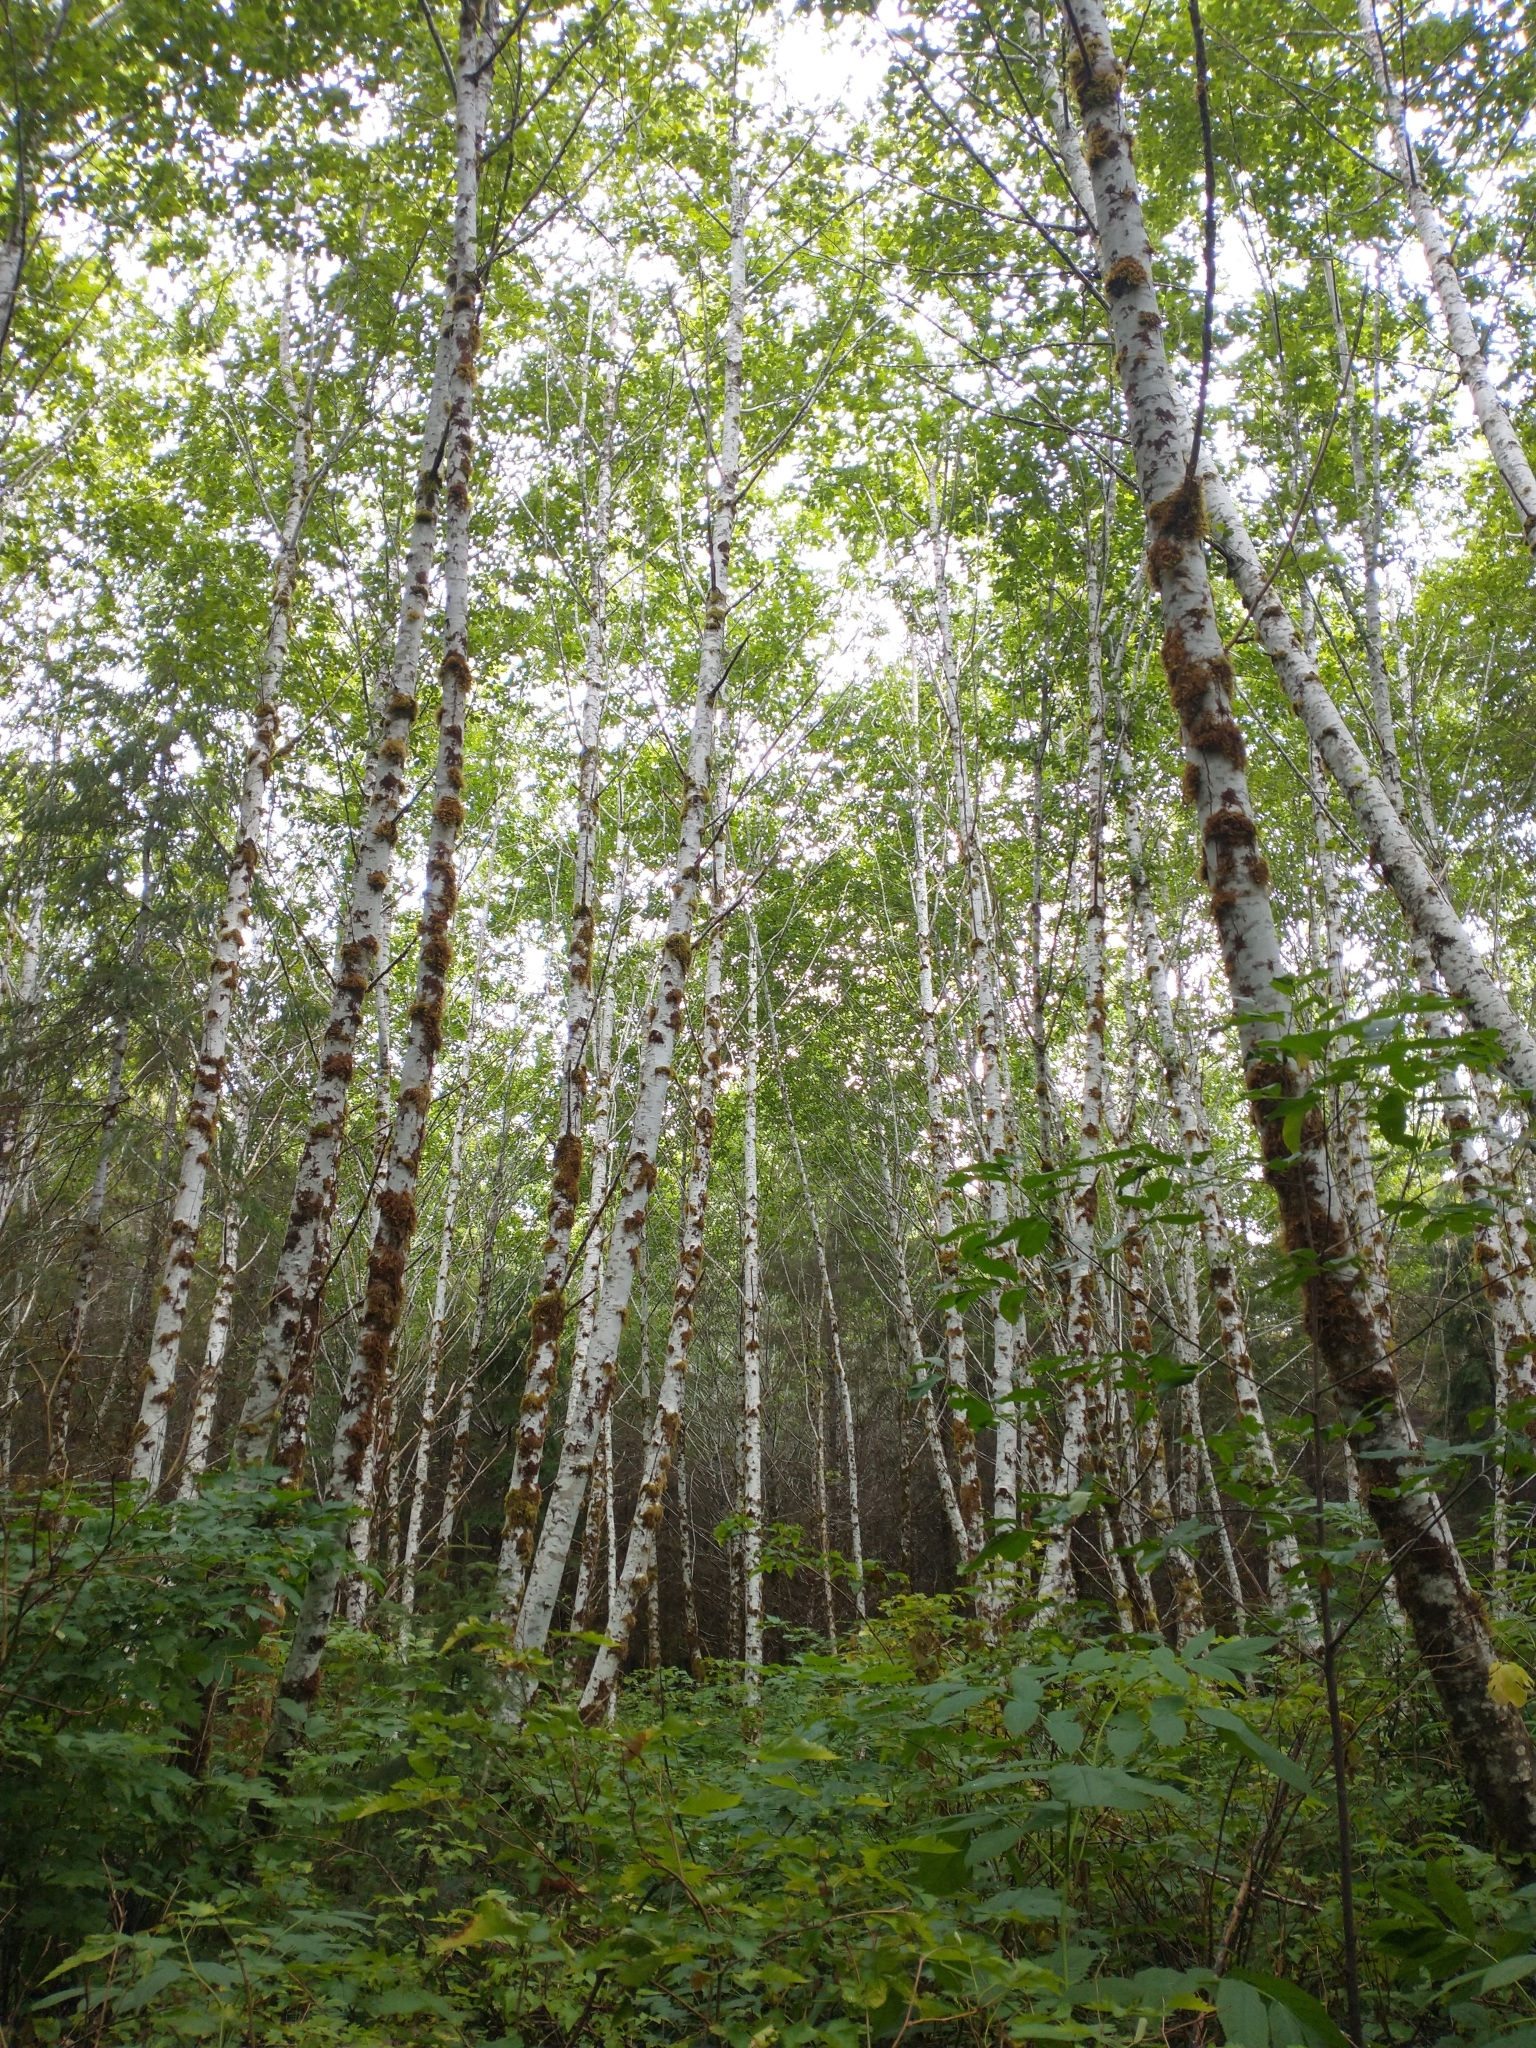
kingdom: Plantae
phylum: Tracheophyta
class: Magnoliopsida
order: Fagales
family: Betulaceae
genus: Alnus
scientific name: Alnus rubra
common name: Red alder
